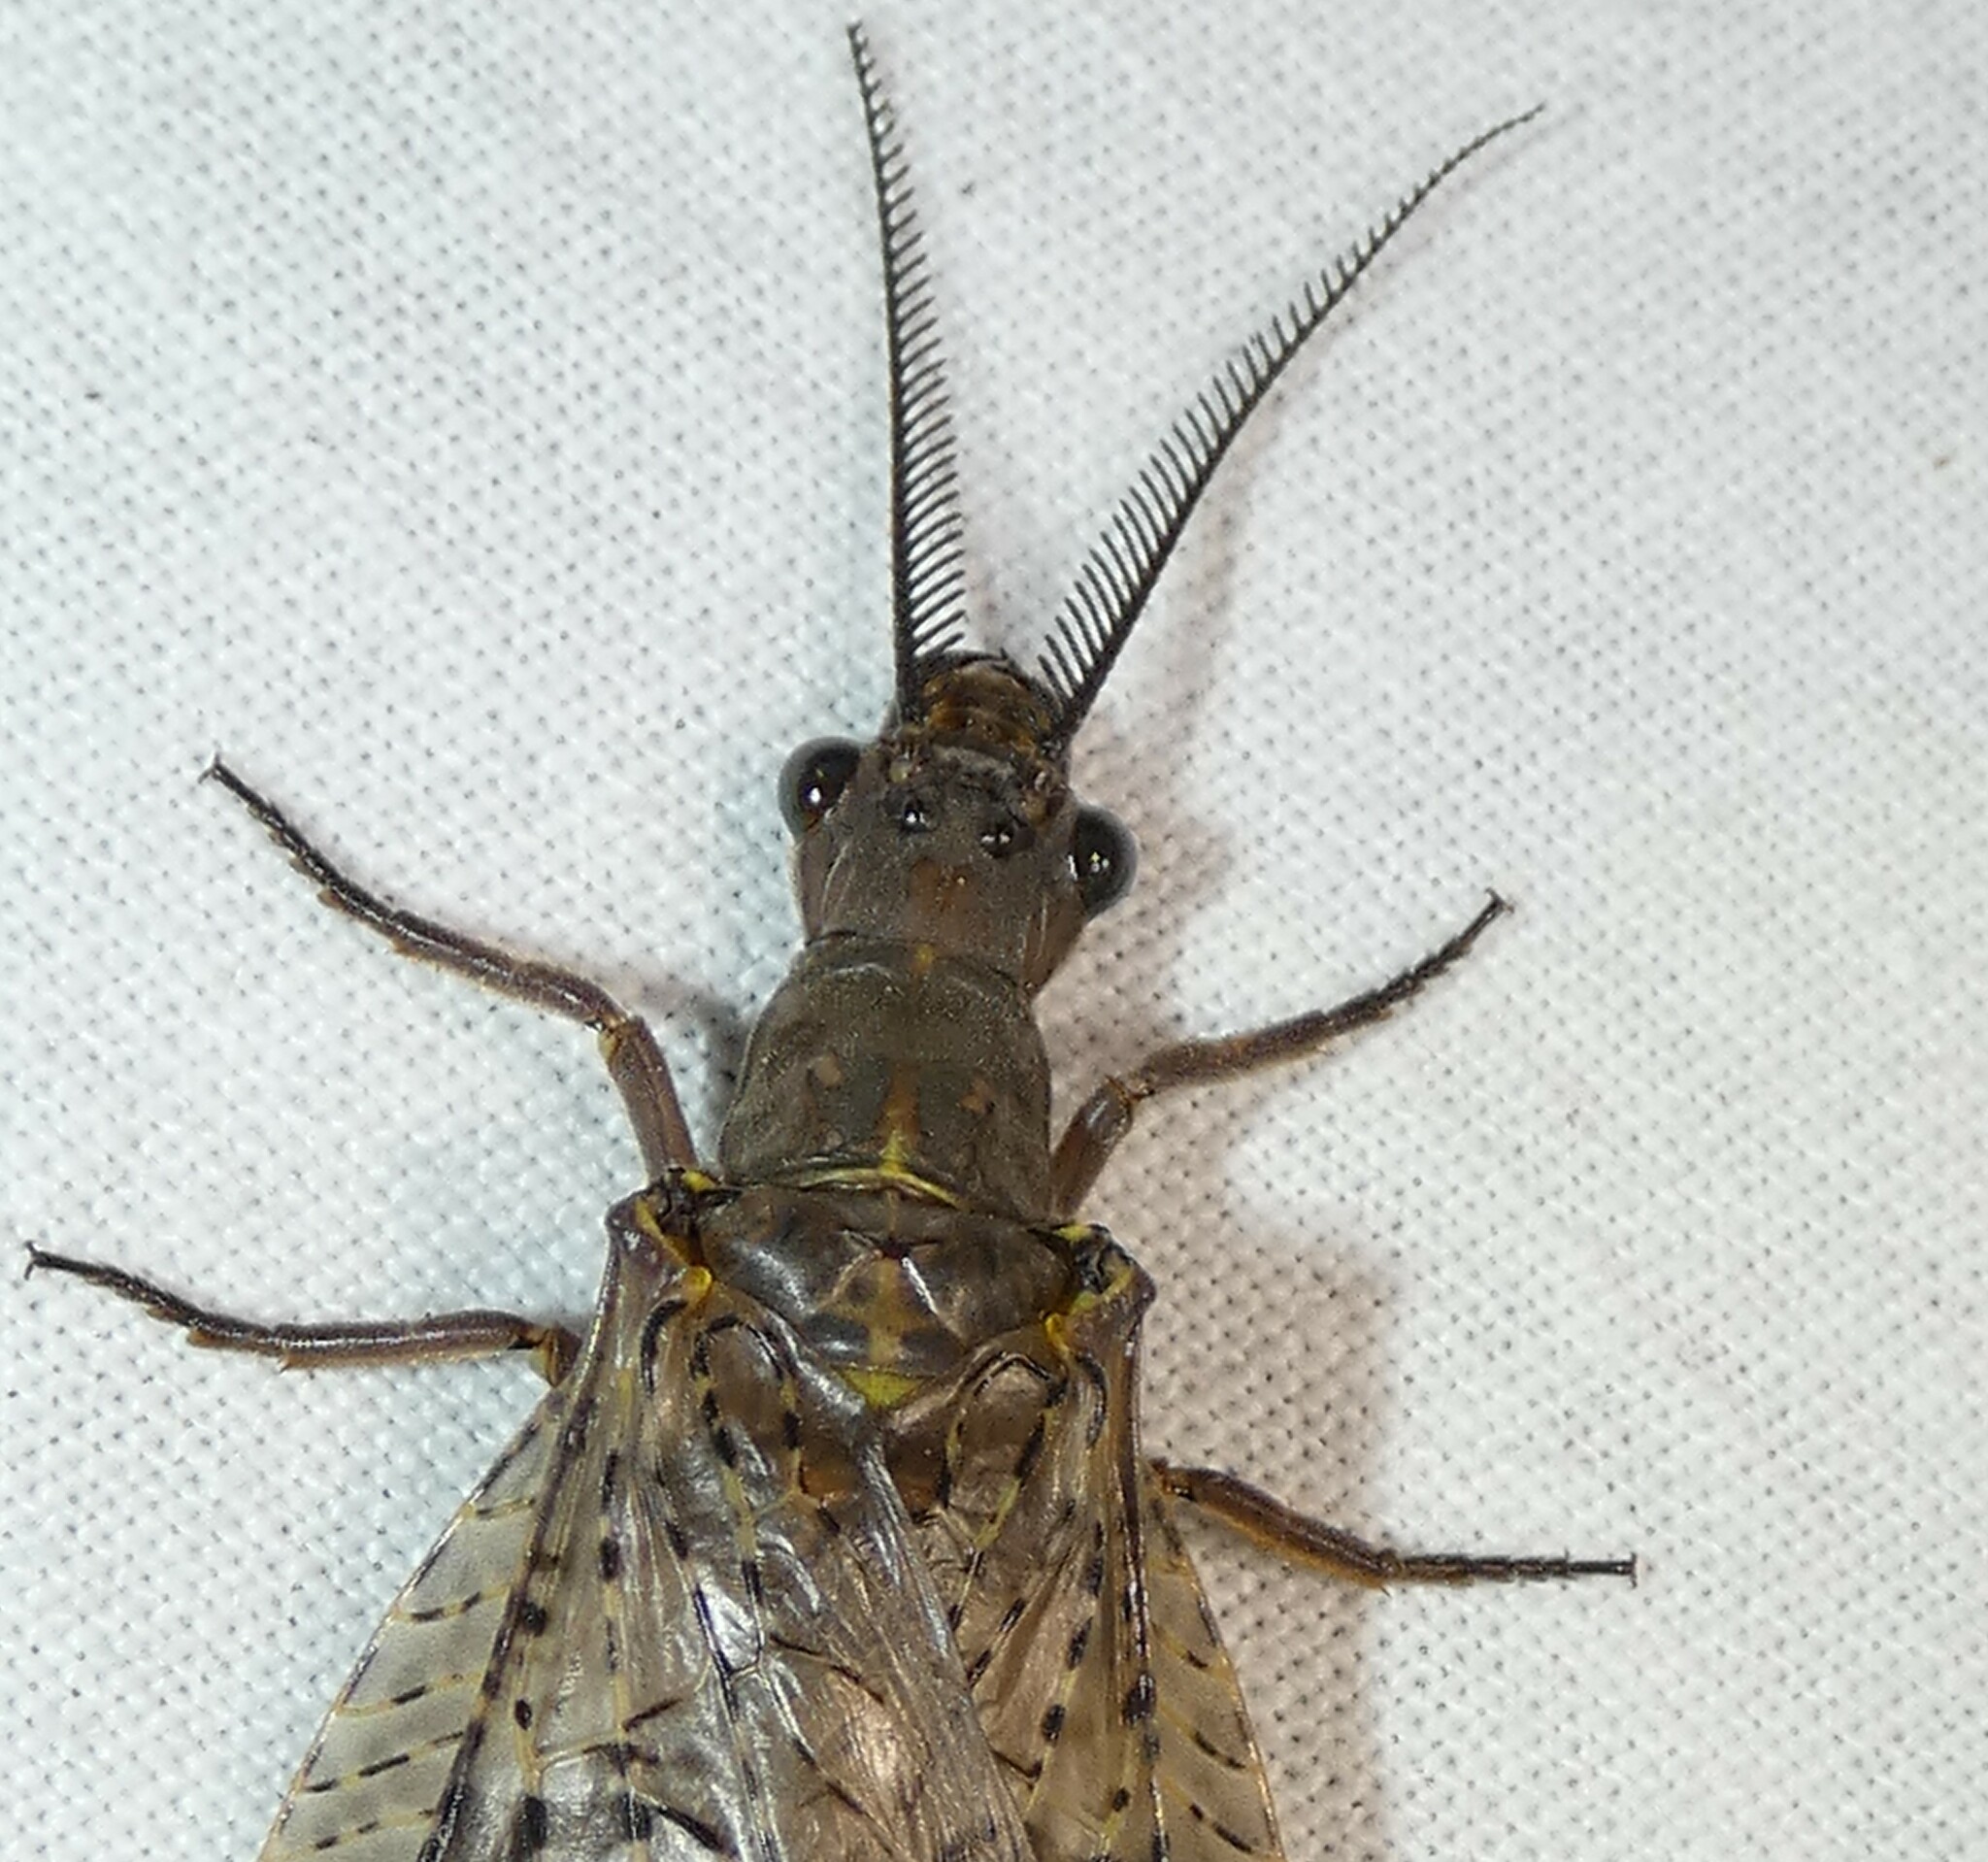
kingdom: Animalia
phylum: Arthropoda
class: Insecta
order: Megaloptera
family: Corydalidae
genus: Chauliodes
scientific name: Chauliodes pectinicornis
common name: Summer fishfly
